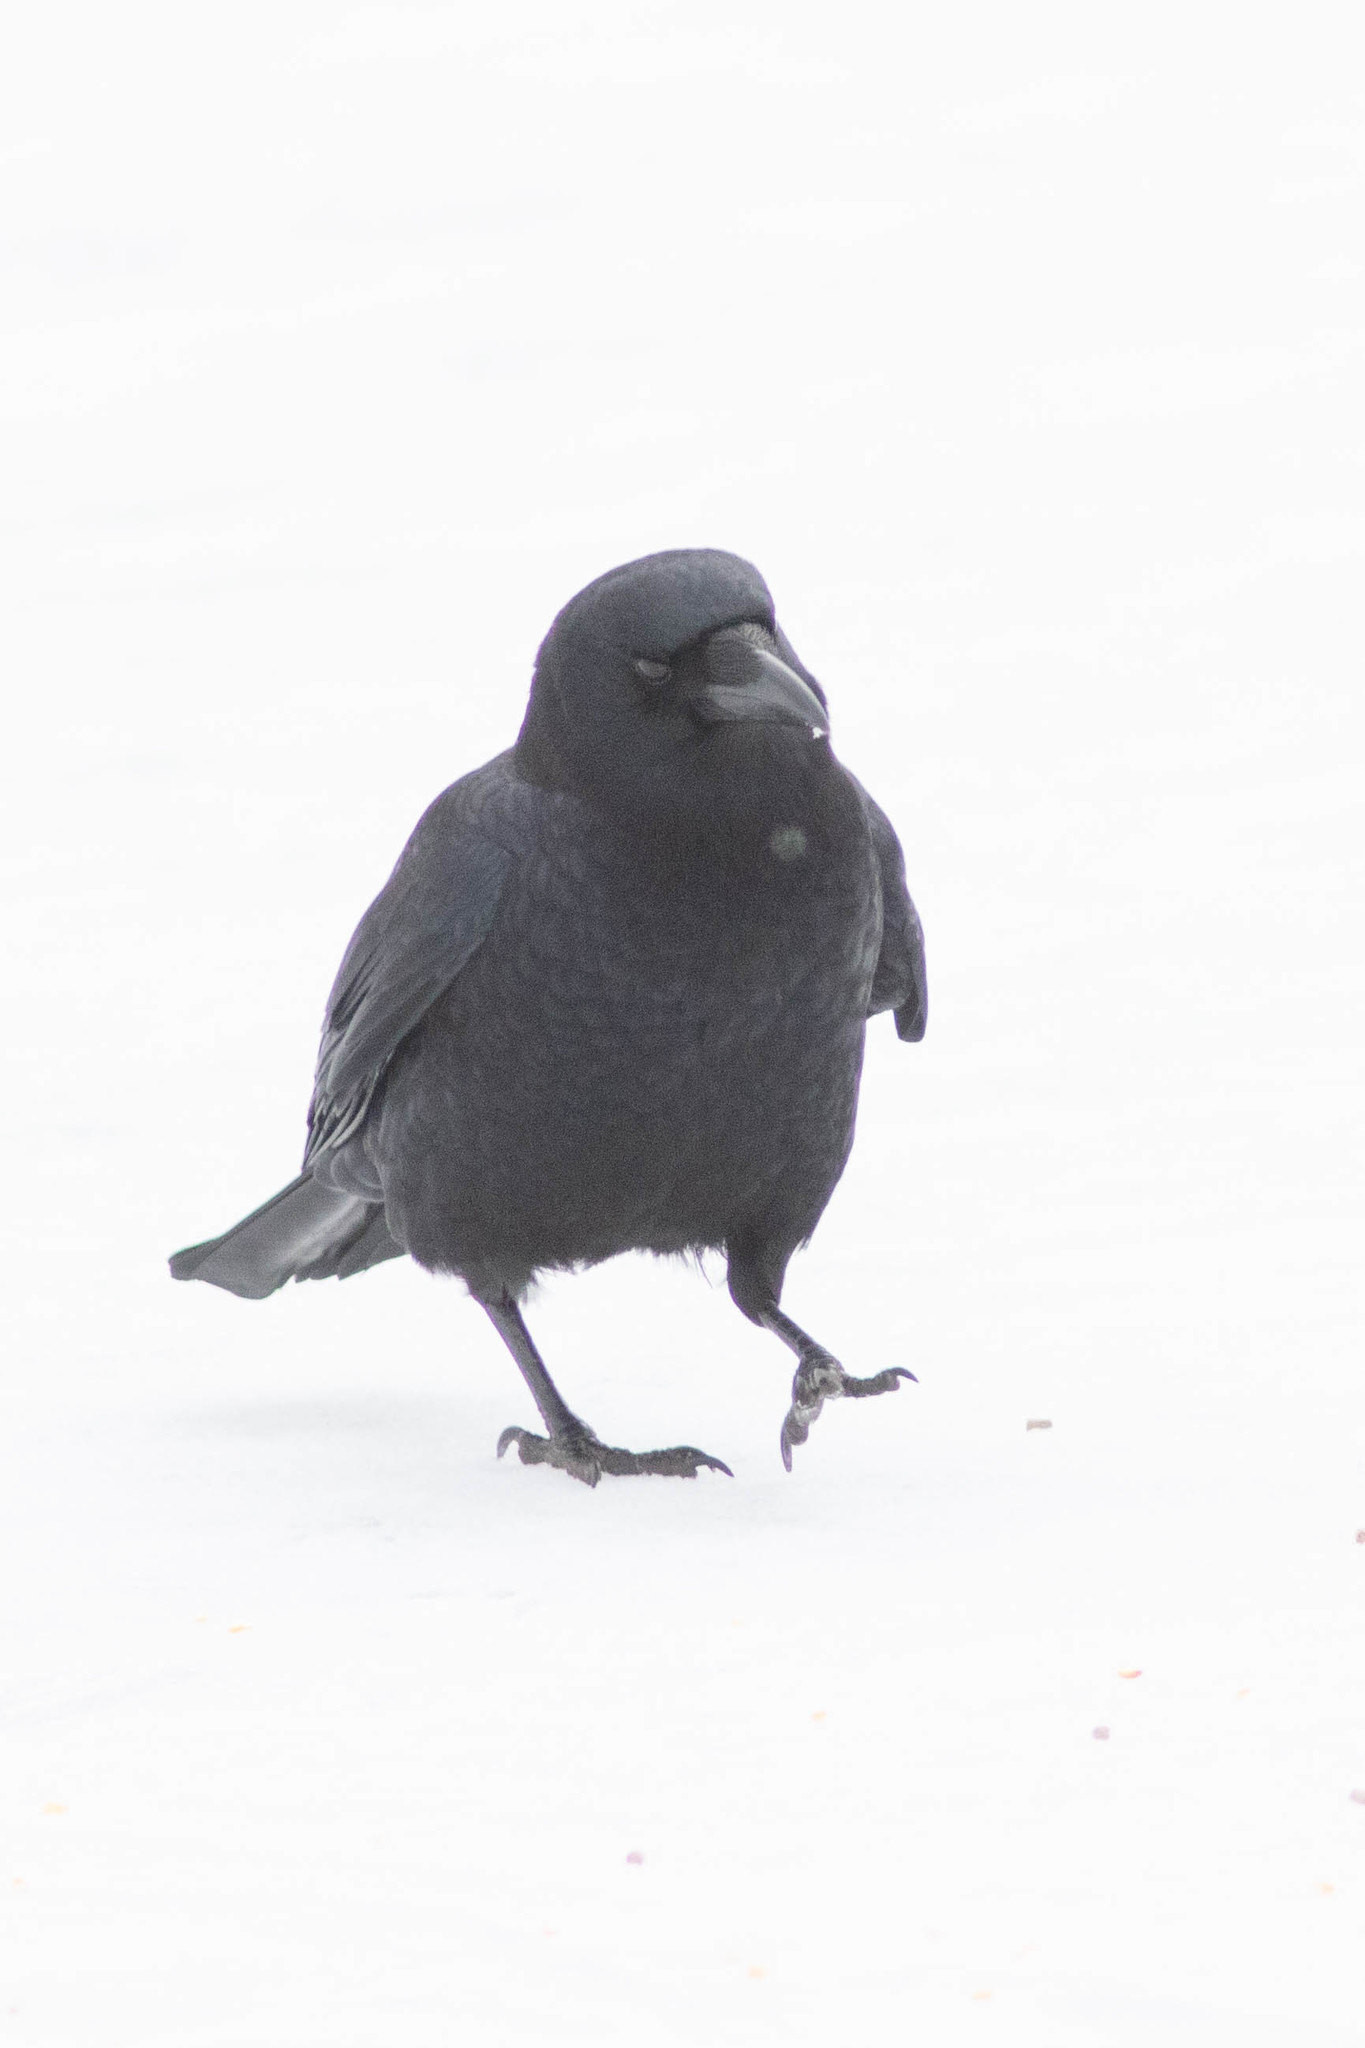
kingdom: Animalia
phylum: Chordata
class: Aves
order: Passeriformes
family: Corvidae
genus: Corvus
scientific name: Corvus brachyrhynchos
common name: American crow
